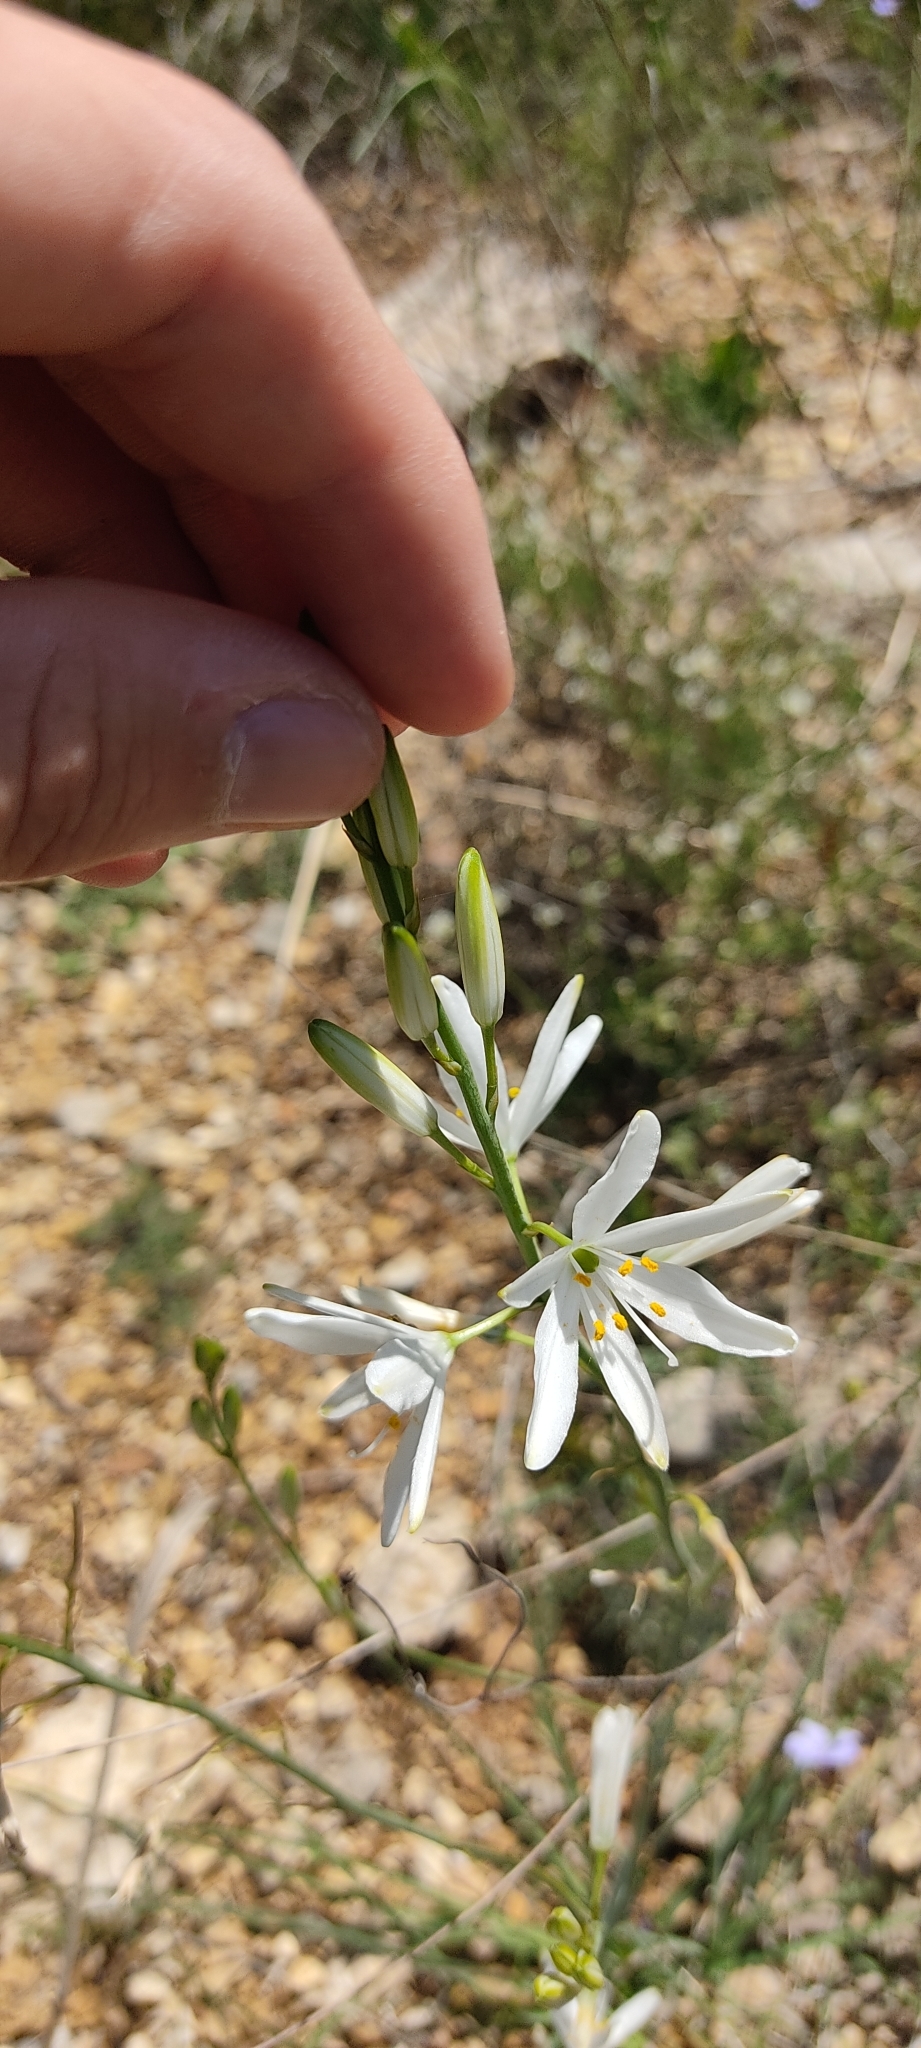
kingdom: Plantae
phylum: Tracheophyta
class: Liliopsida
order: Asparagales
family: Asparagaceae
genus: Anthericum
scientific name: Anthericum liliago
